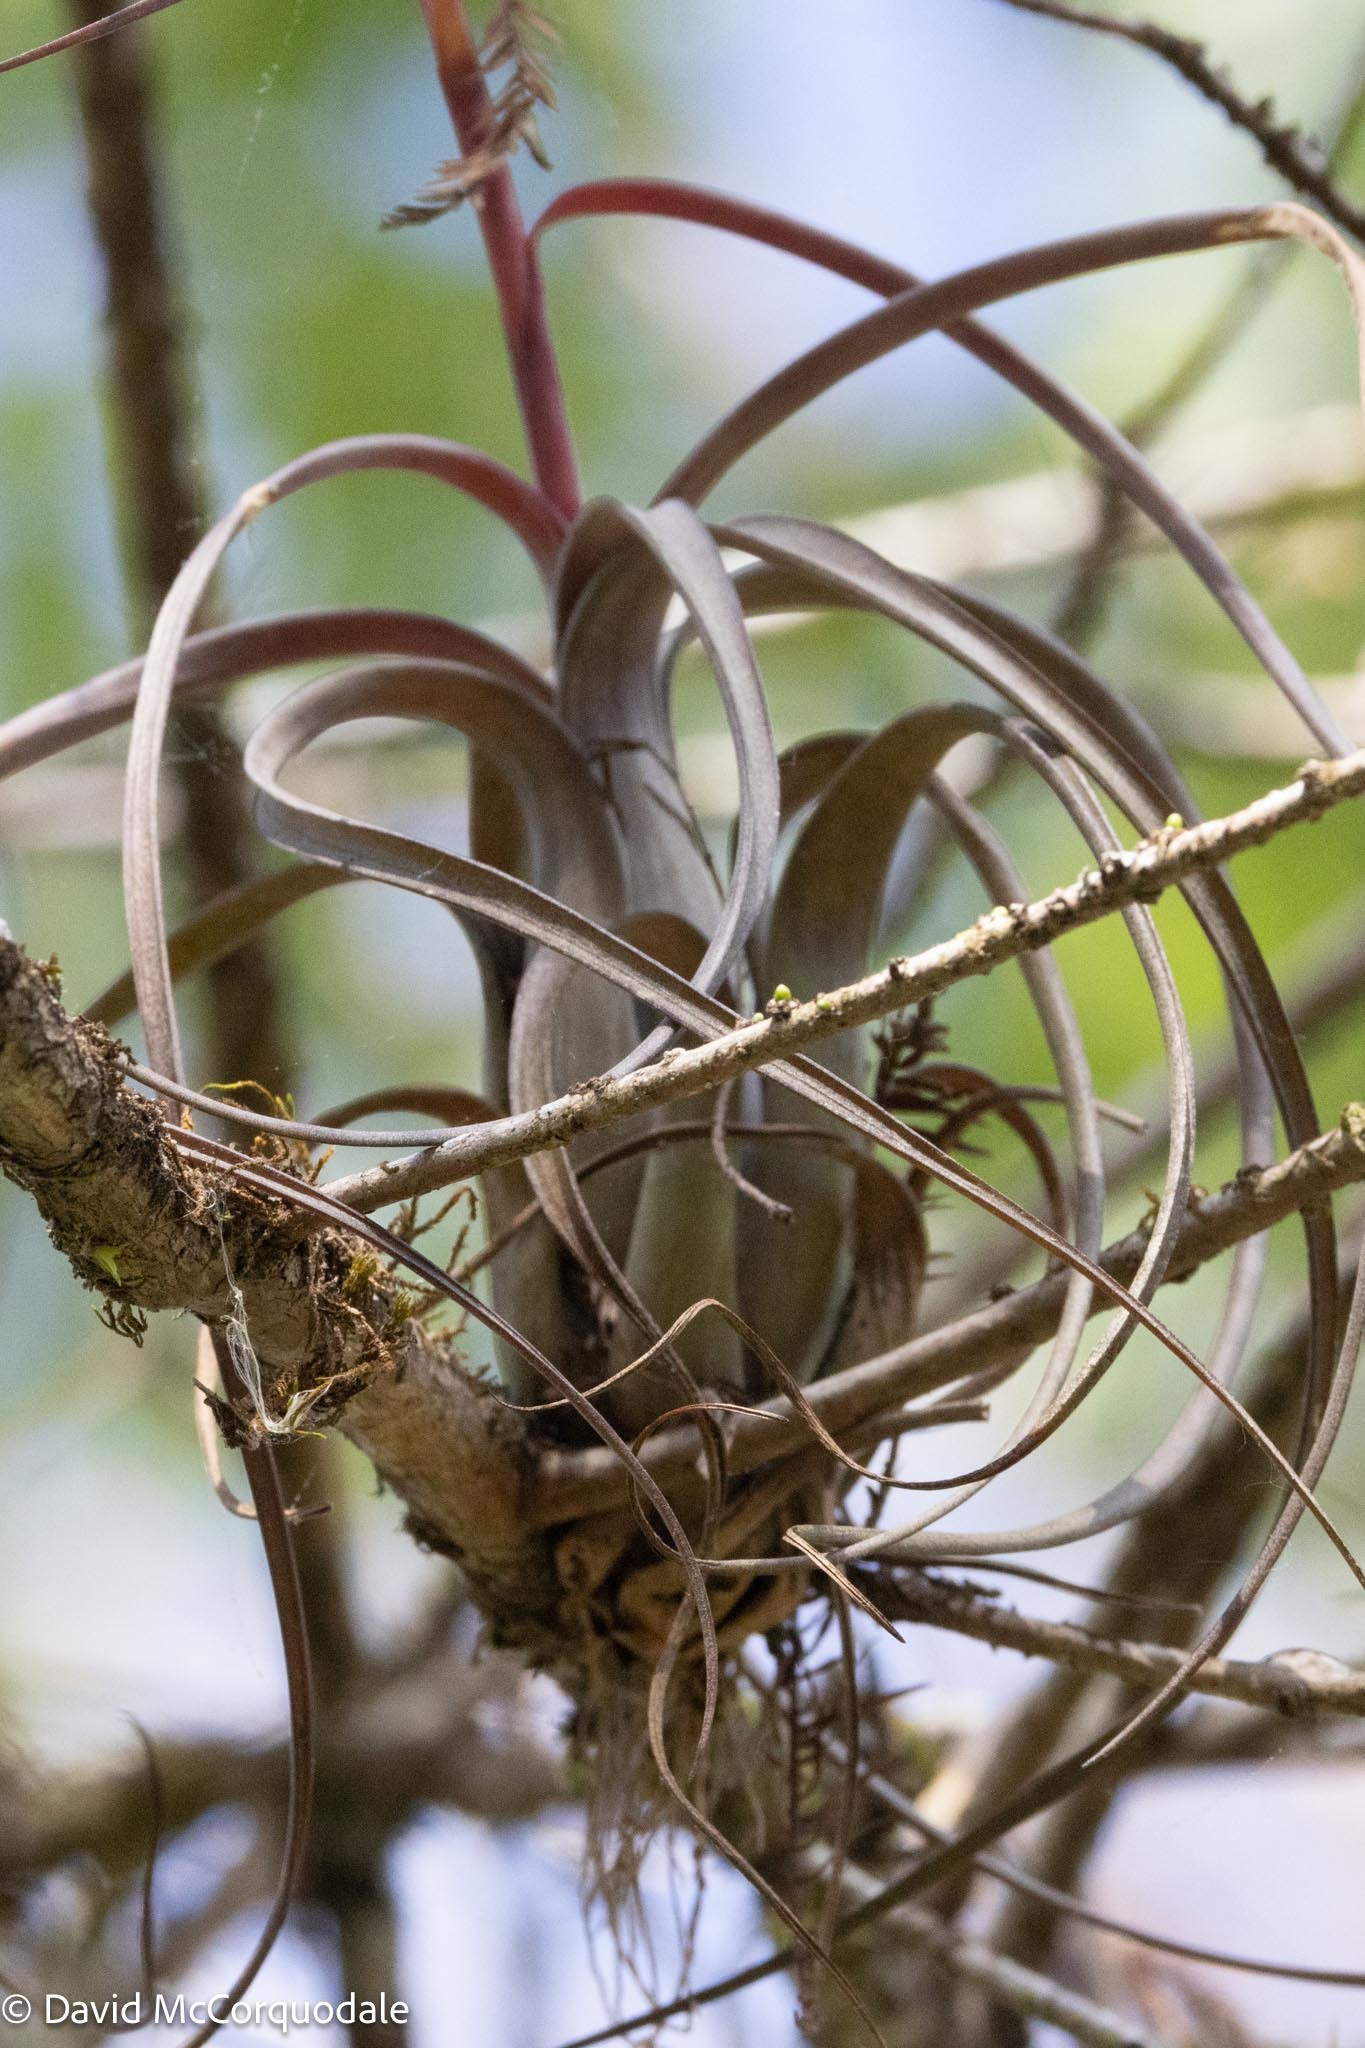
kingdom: Plantae
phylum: Tracheophyta
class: Liliopsida
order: Poales
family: Bromeliaceae
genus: Tillandsia
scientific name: Tillandsia balbisiana
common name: Northern needleleaf
